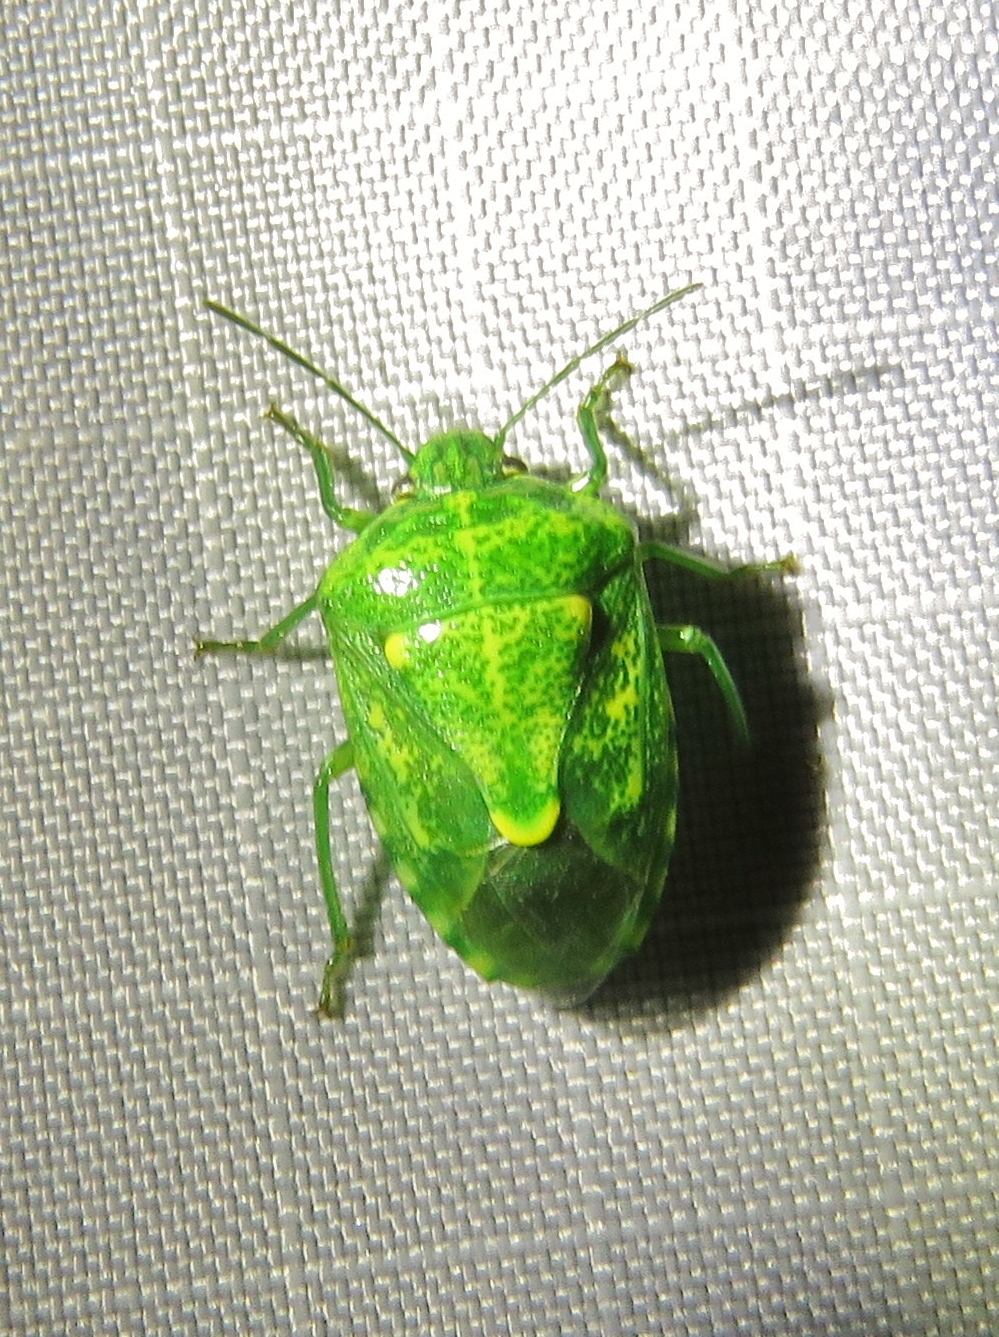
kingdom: Animalia
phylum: Arthropoda
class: Insecta
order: Hemiptera
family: Pentatomidae
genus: Banasa
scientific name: Banasa euchlora
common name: Cedar berry bug
